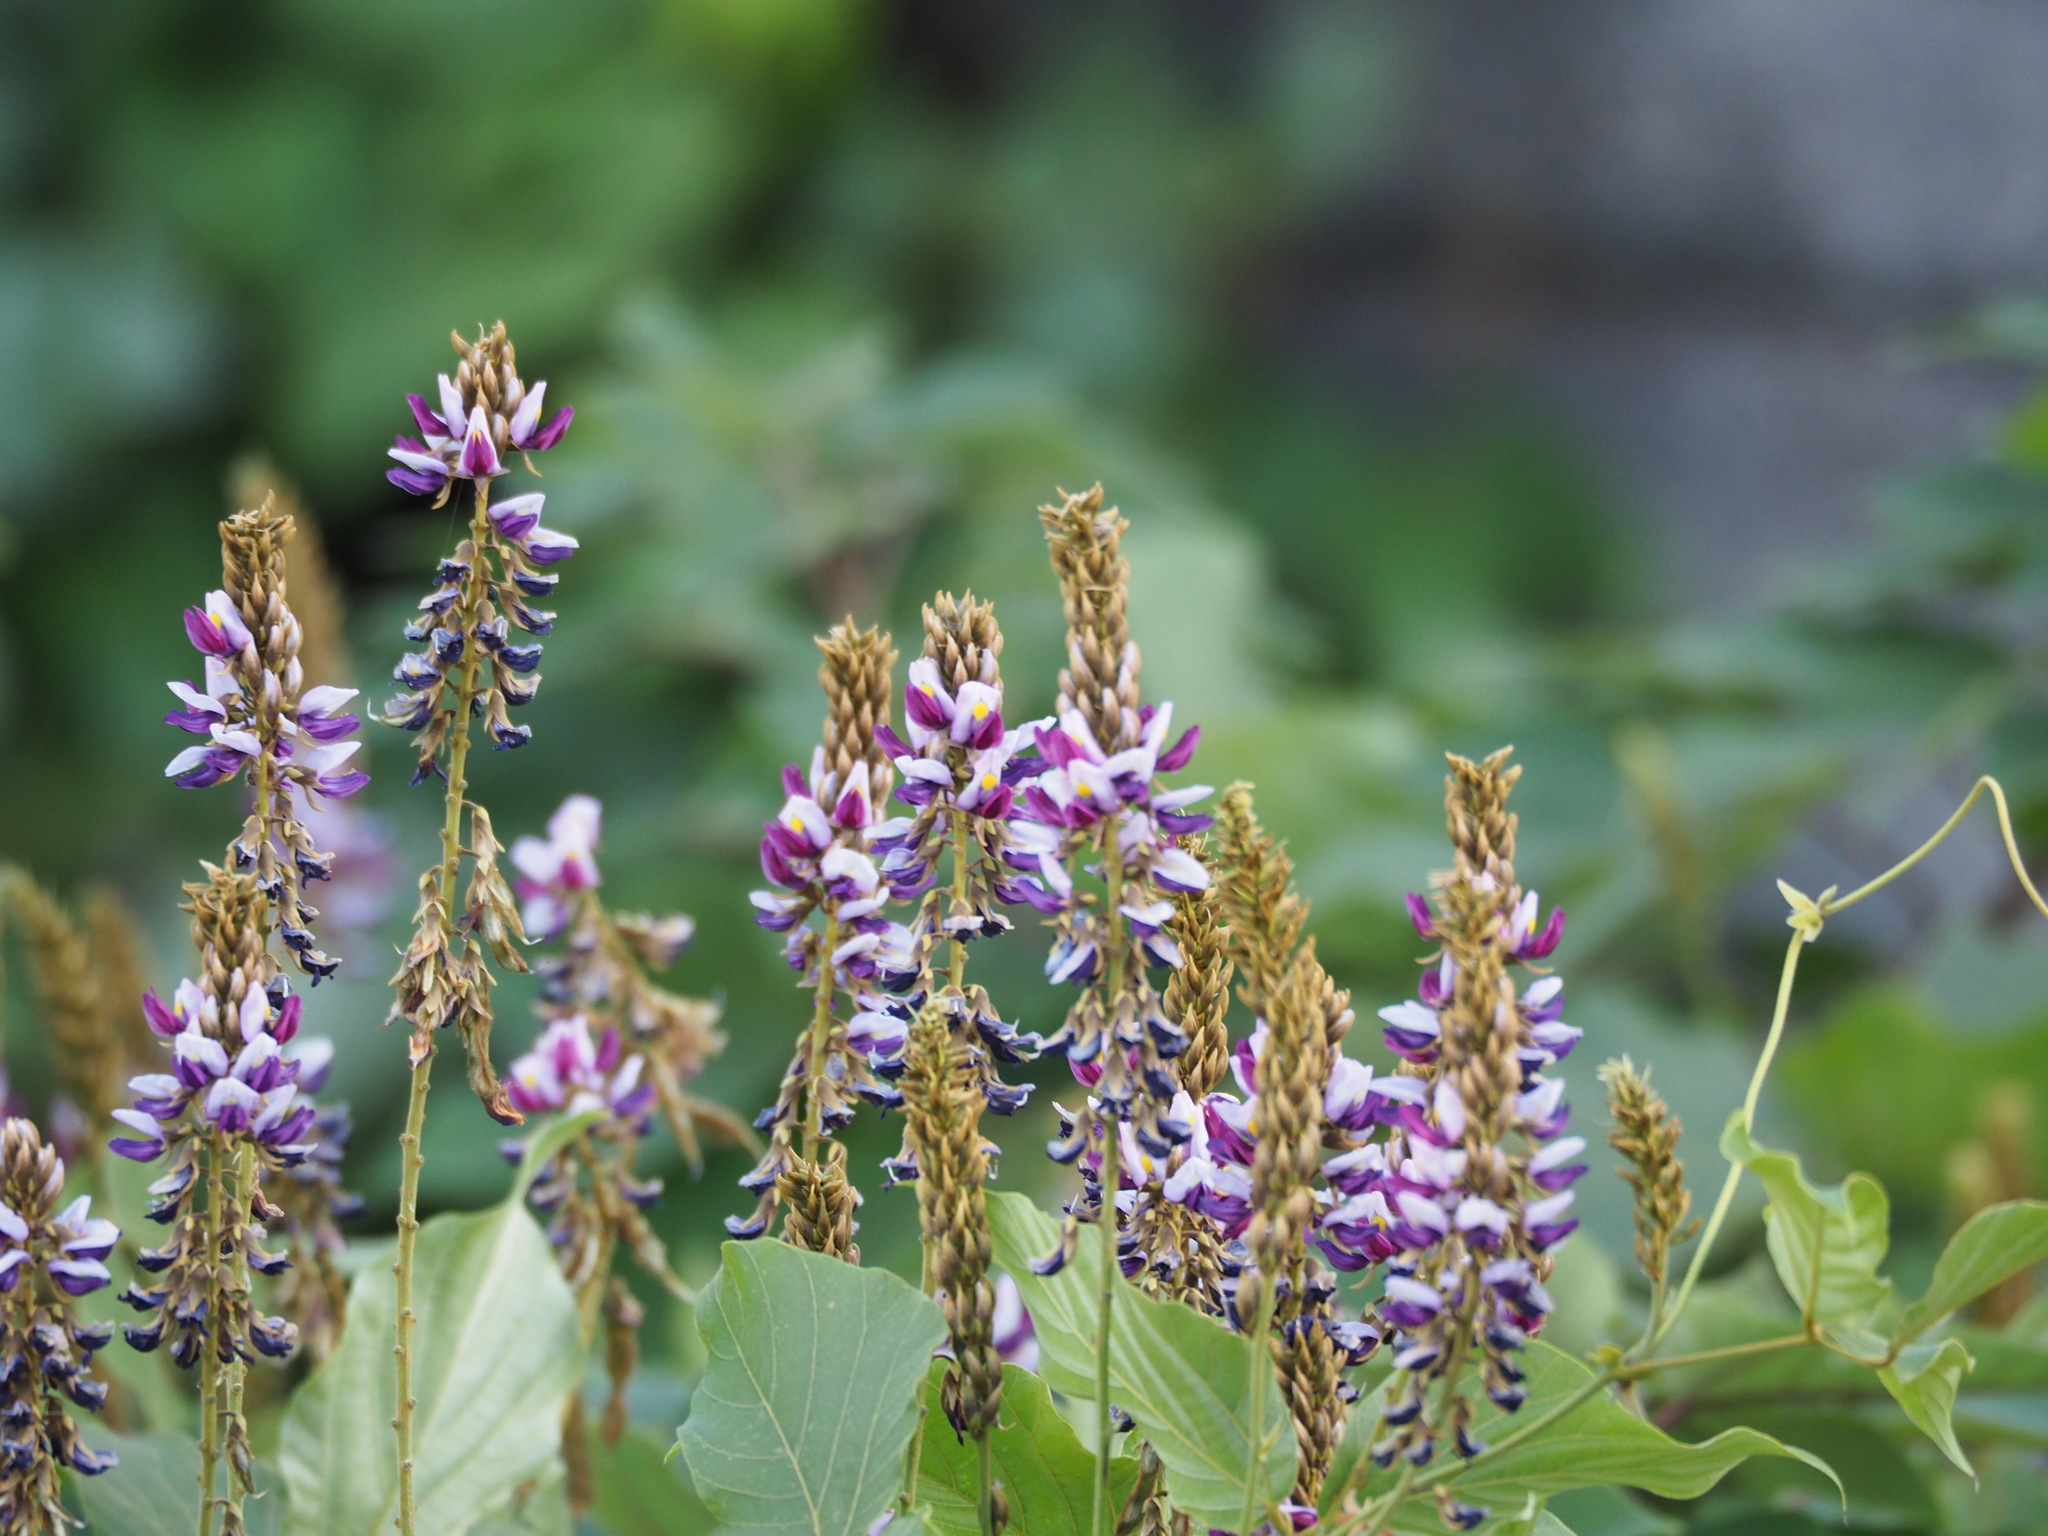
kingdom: Plantae
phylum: Tracheophyta
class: Magnoliopsida
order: Fabales
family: Fabaceae
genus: Pueraria
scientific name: Pueraria montana
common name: Kudzu
